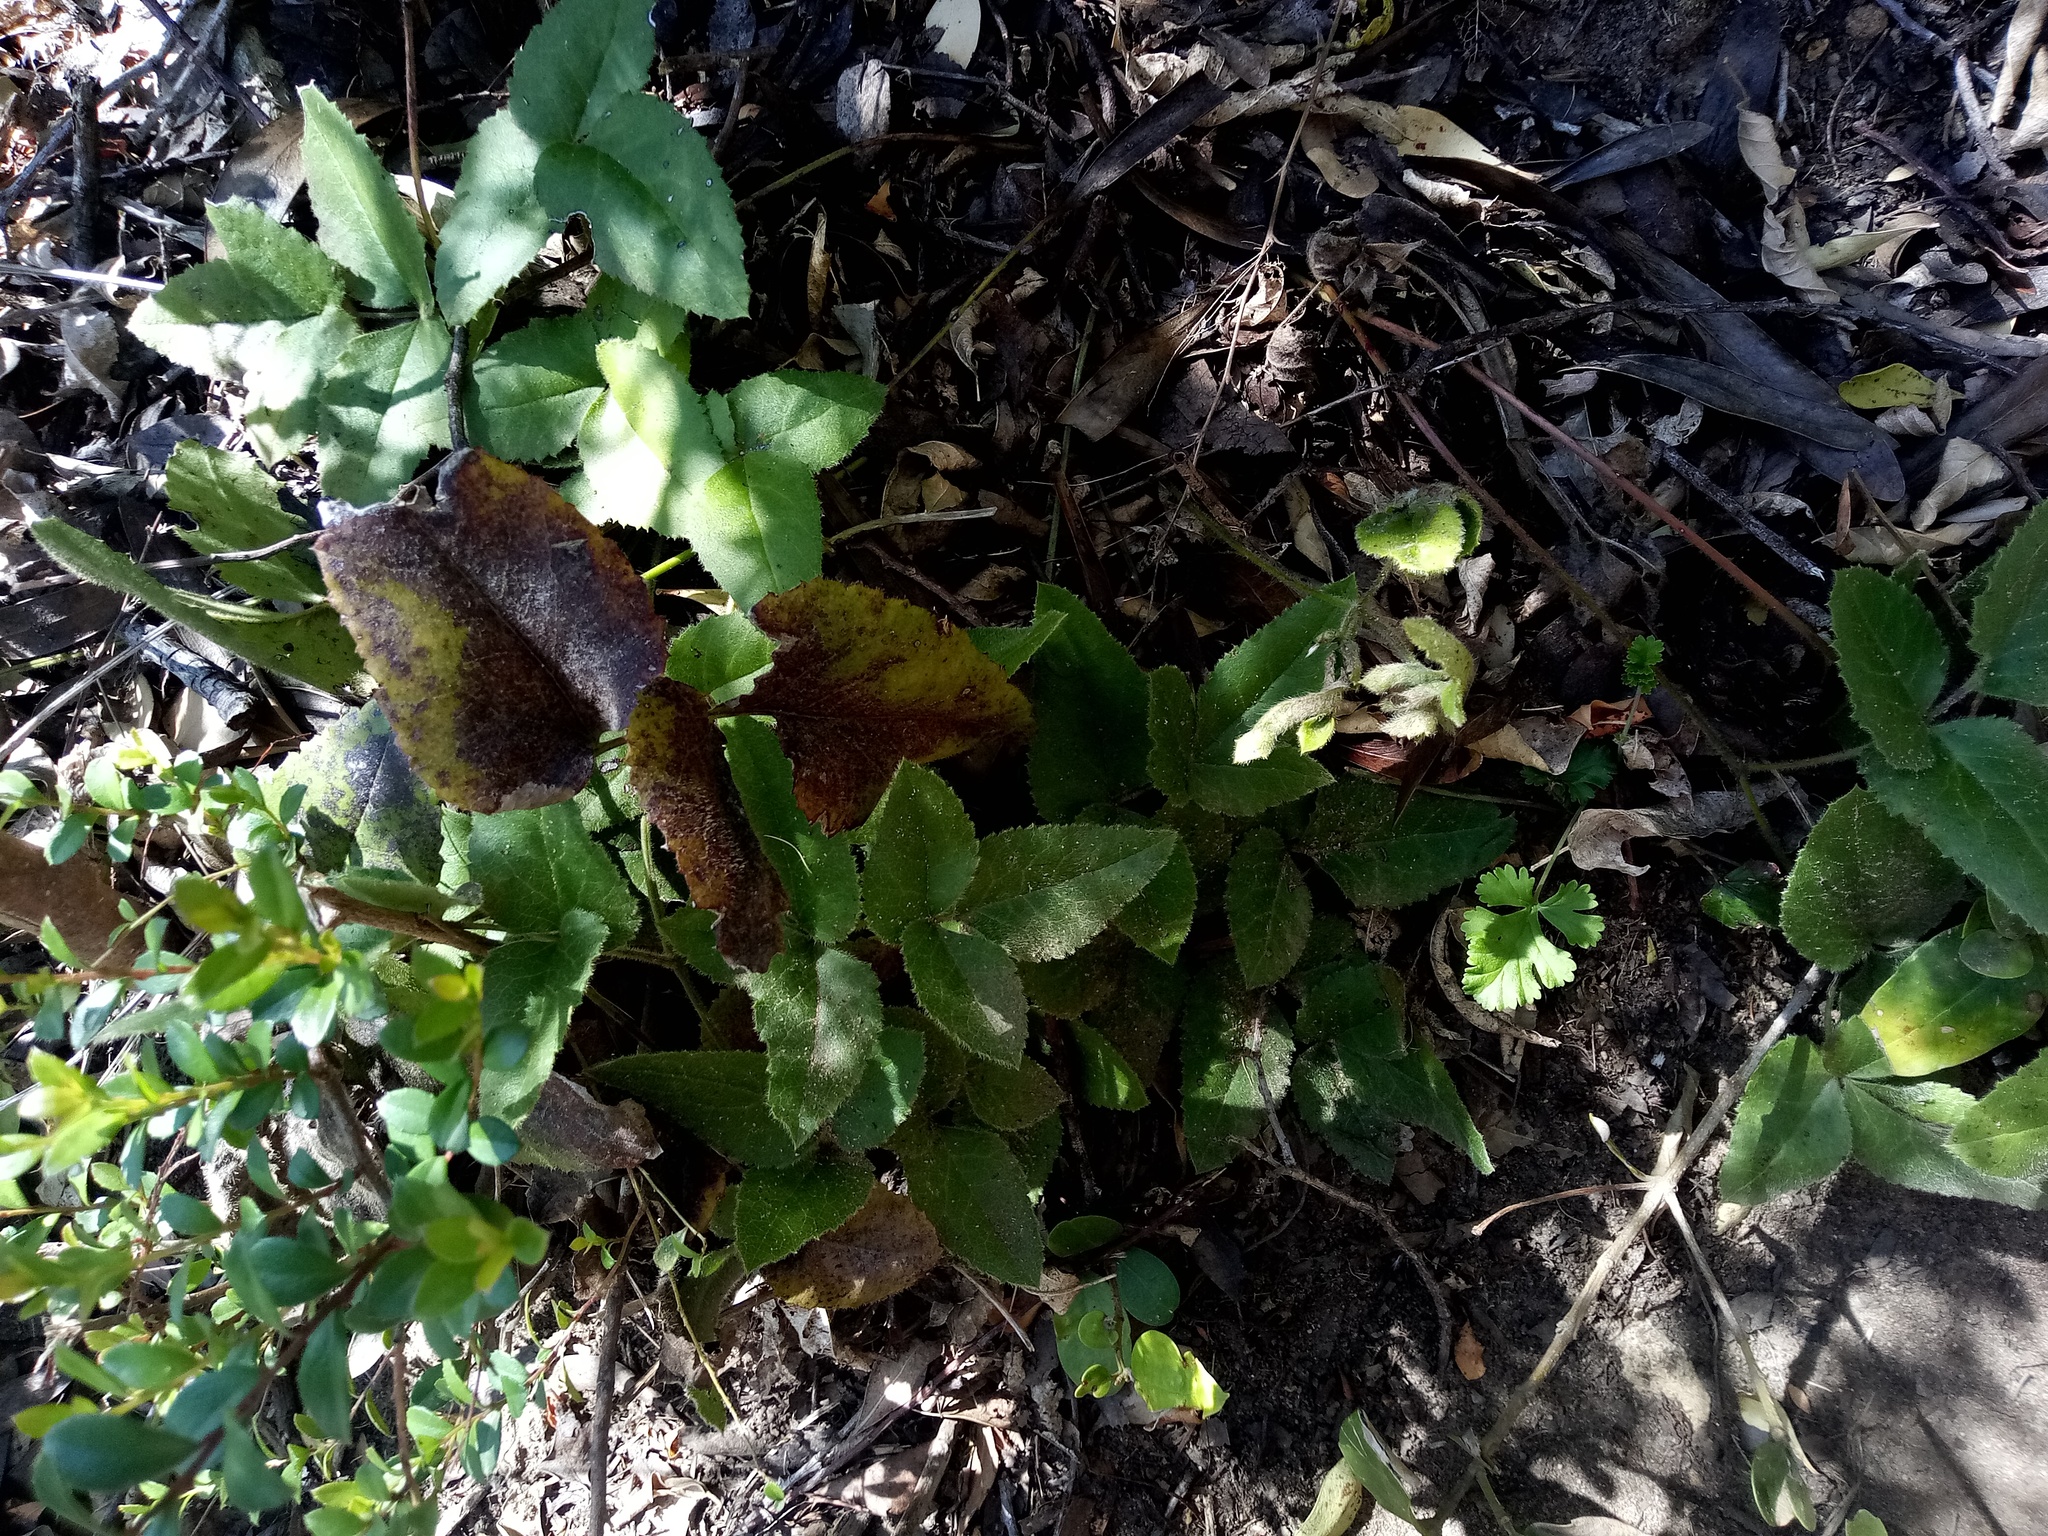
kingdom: Plantae
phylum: Tracheophyta
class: Magnoliopsida
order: Ranunculales
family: Ranunculaceae
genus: Knowltonia
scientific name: Knowltonia capensis
